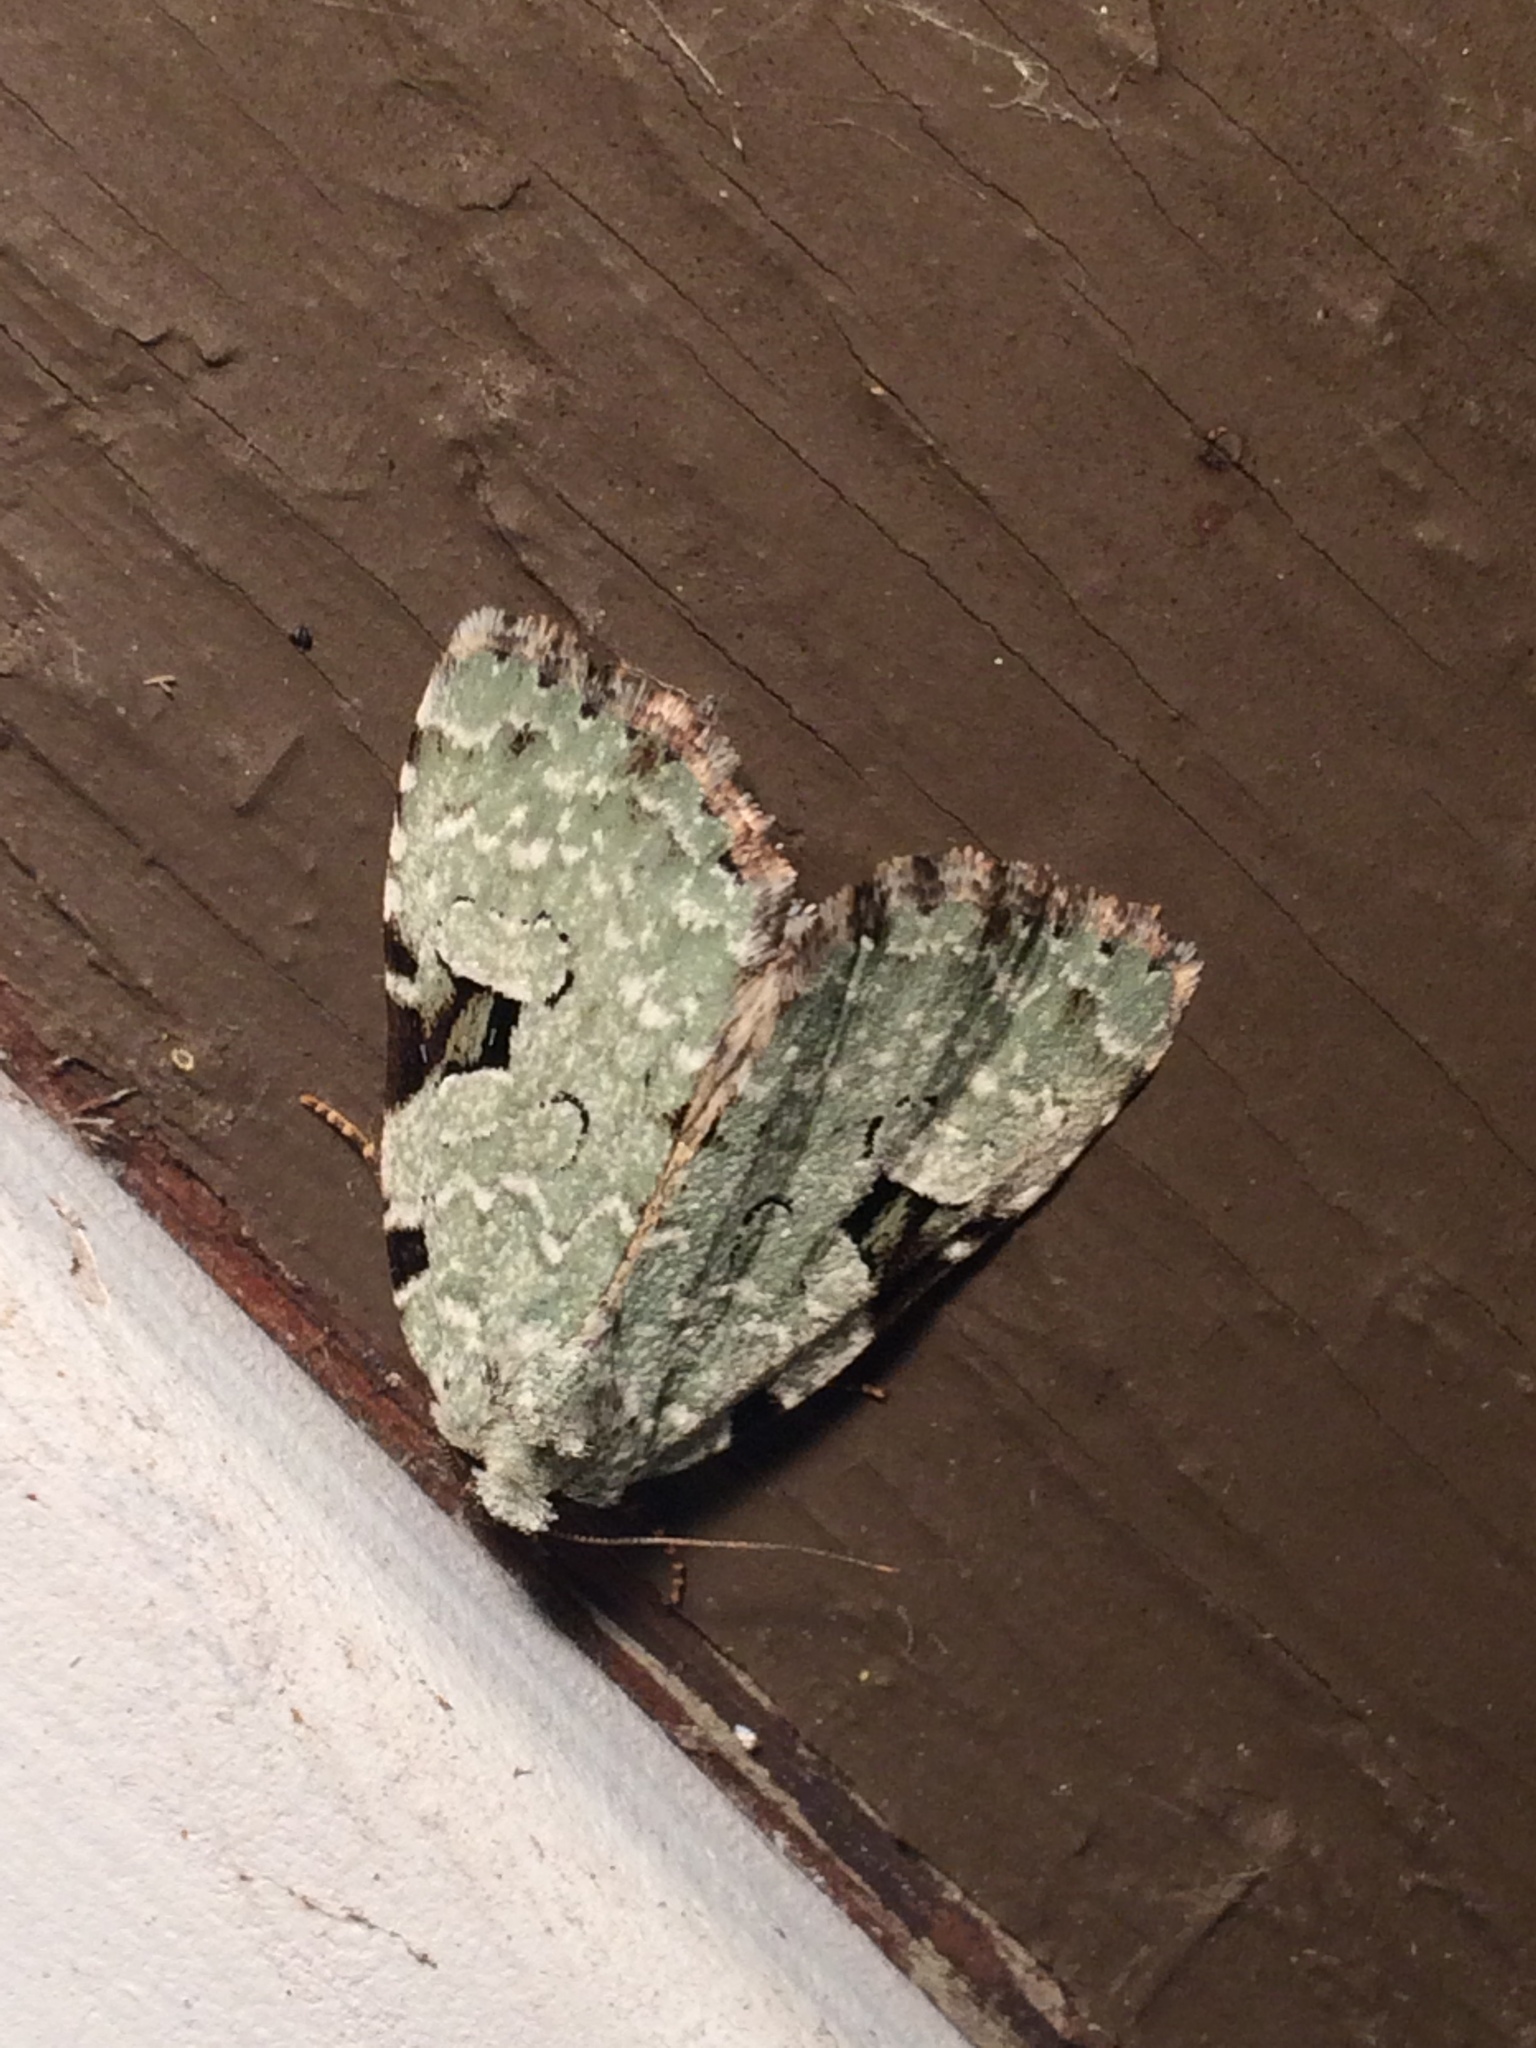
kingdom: Animalia
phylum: Arthropoda
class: Insecta
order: Lepidoptera
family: Noctuidae
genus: Leuconycta
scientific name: Leuconycta diphteroides
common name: Green leuconycta moth
